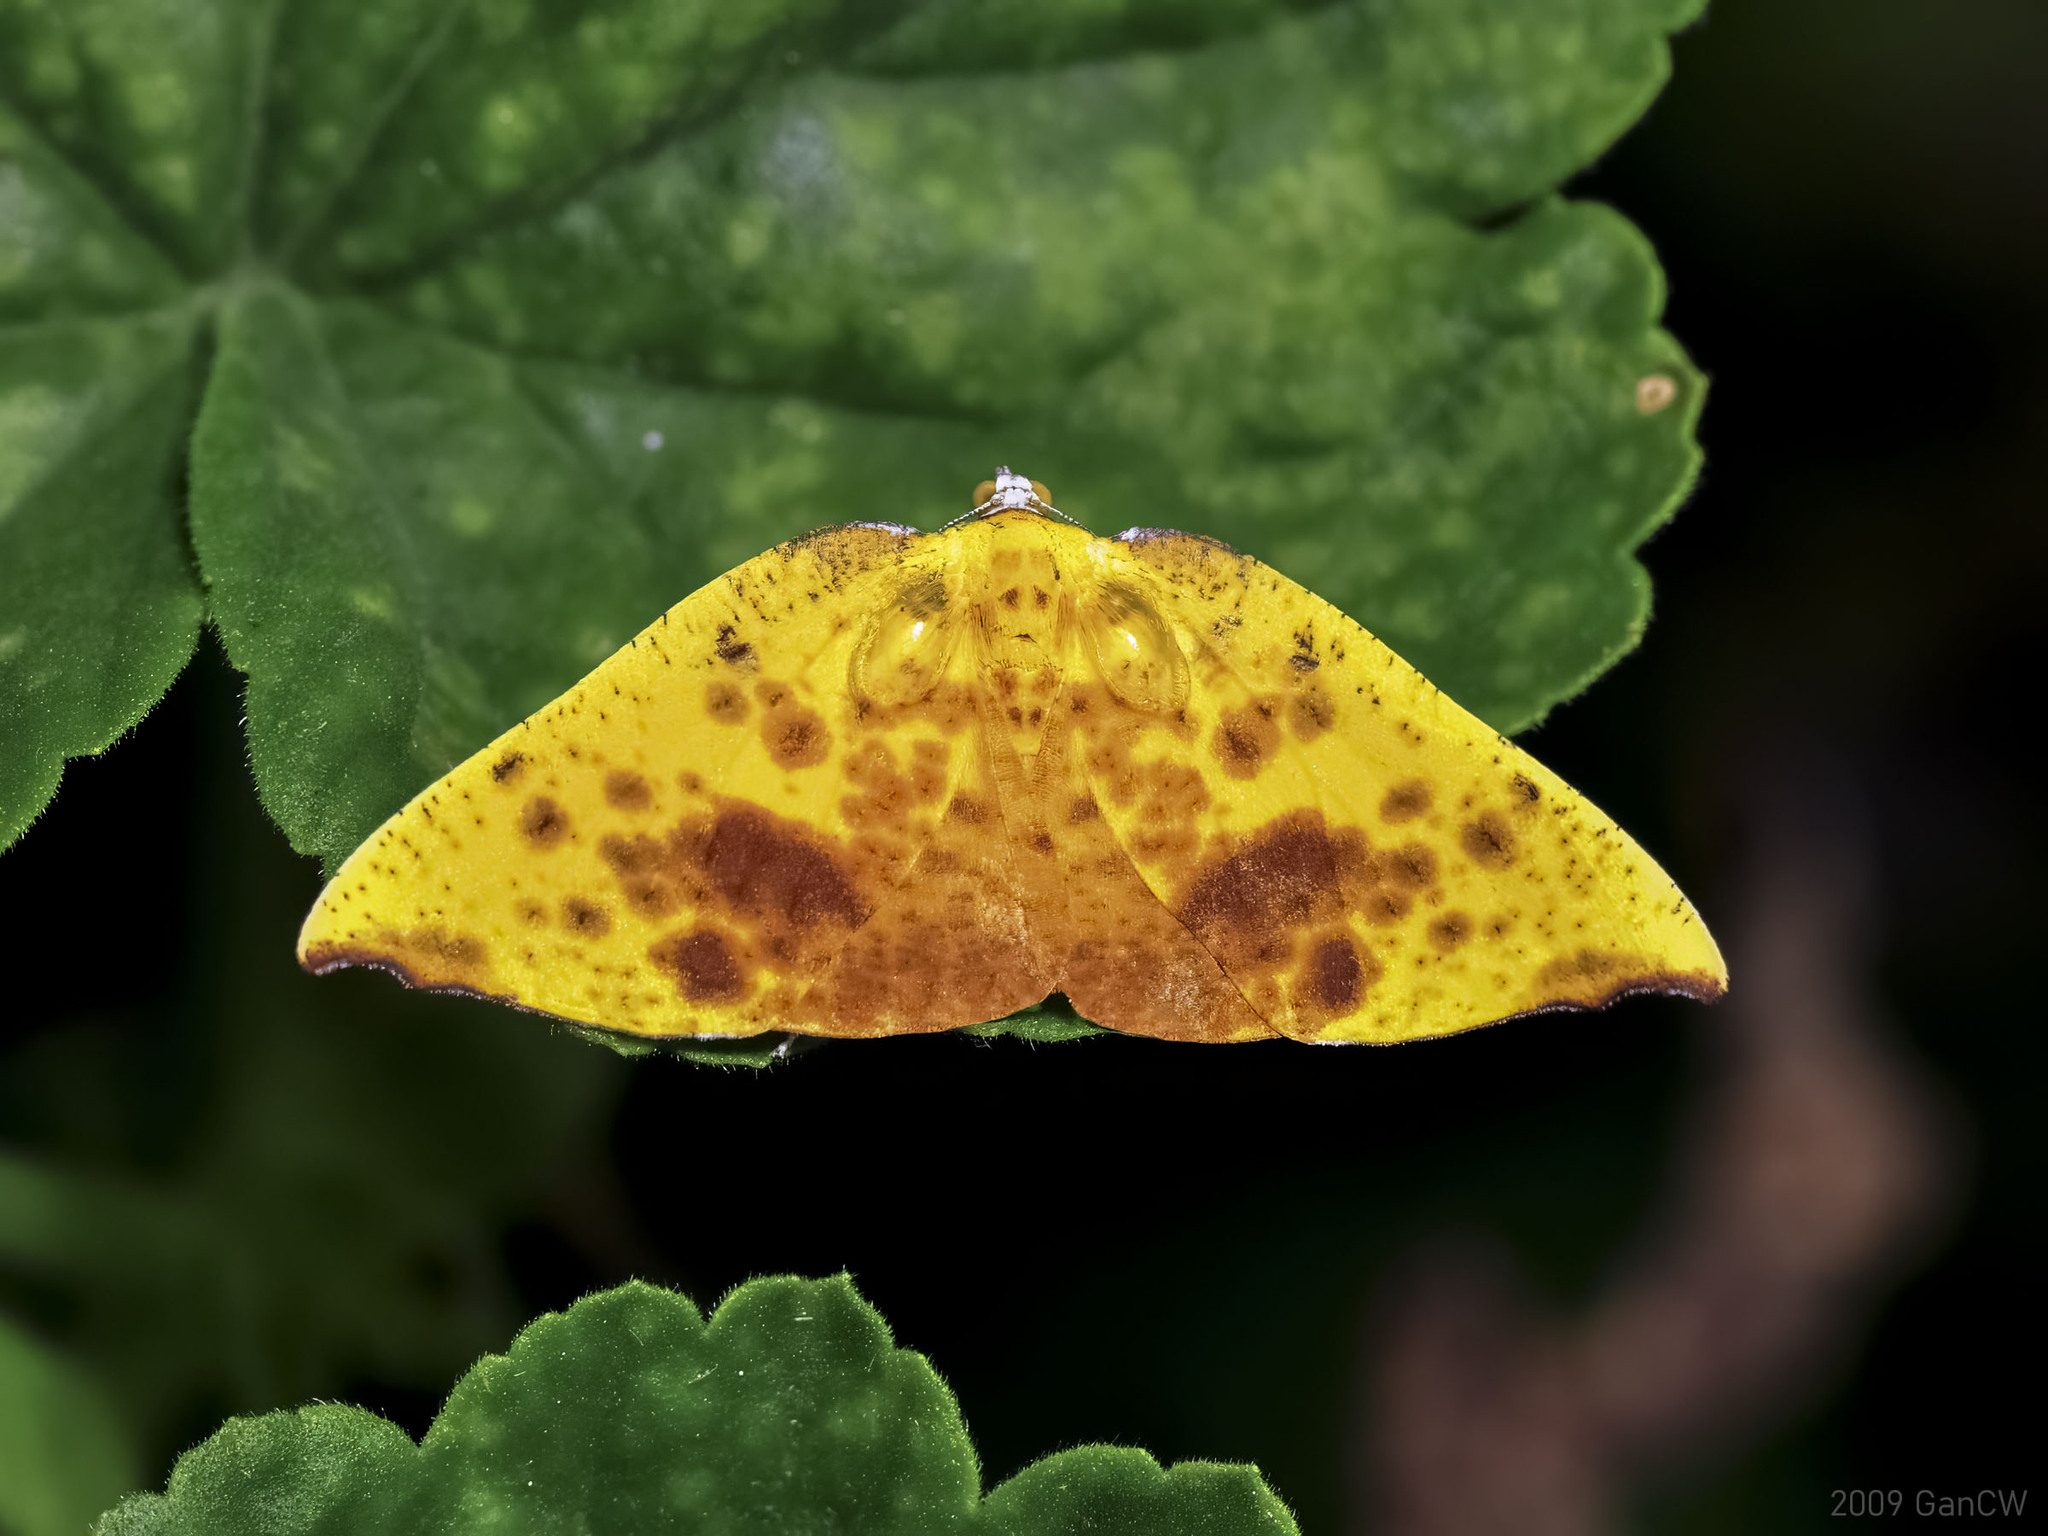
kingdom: Animalia
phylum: Arthropoda
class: Insecta
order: Lepidoptera
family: Geometridae
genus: Corymica
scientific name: Corymica fulvimaculata
